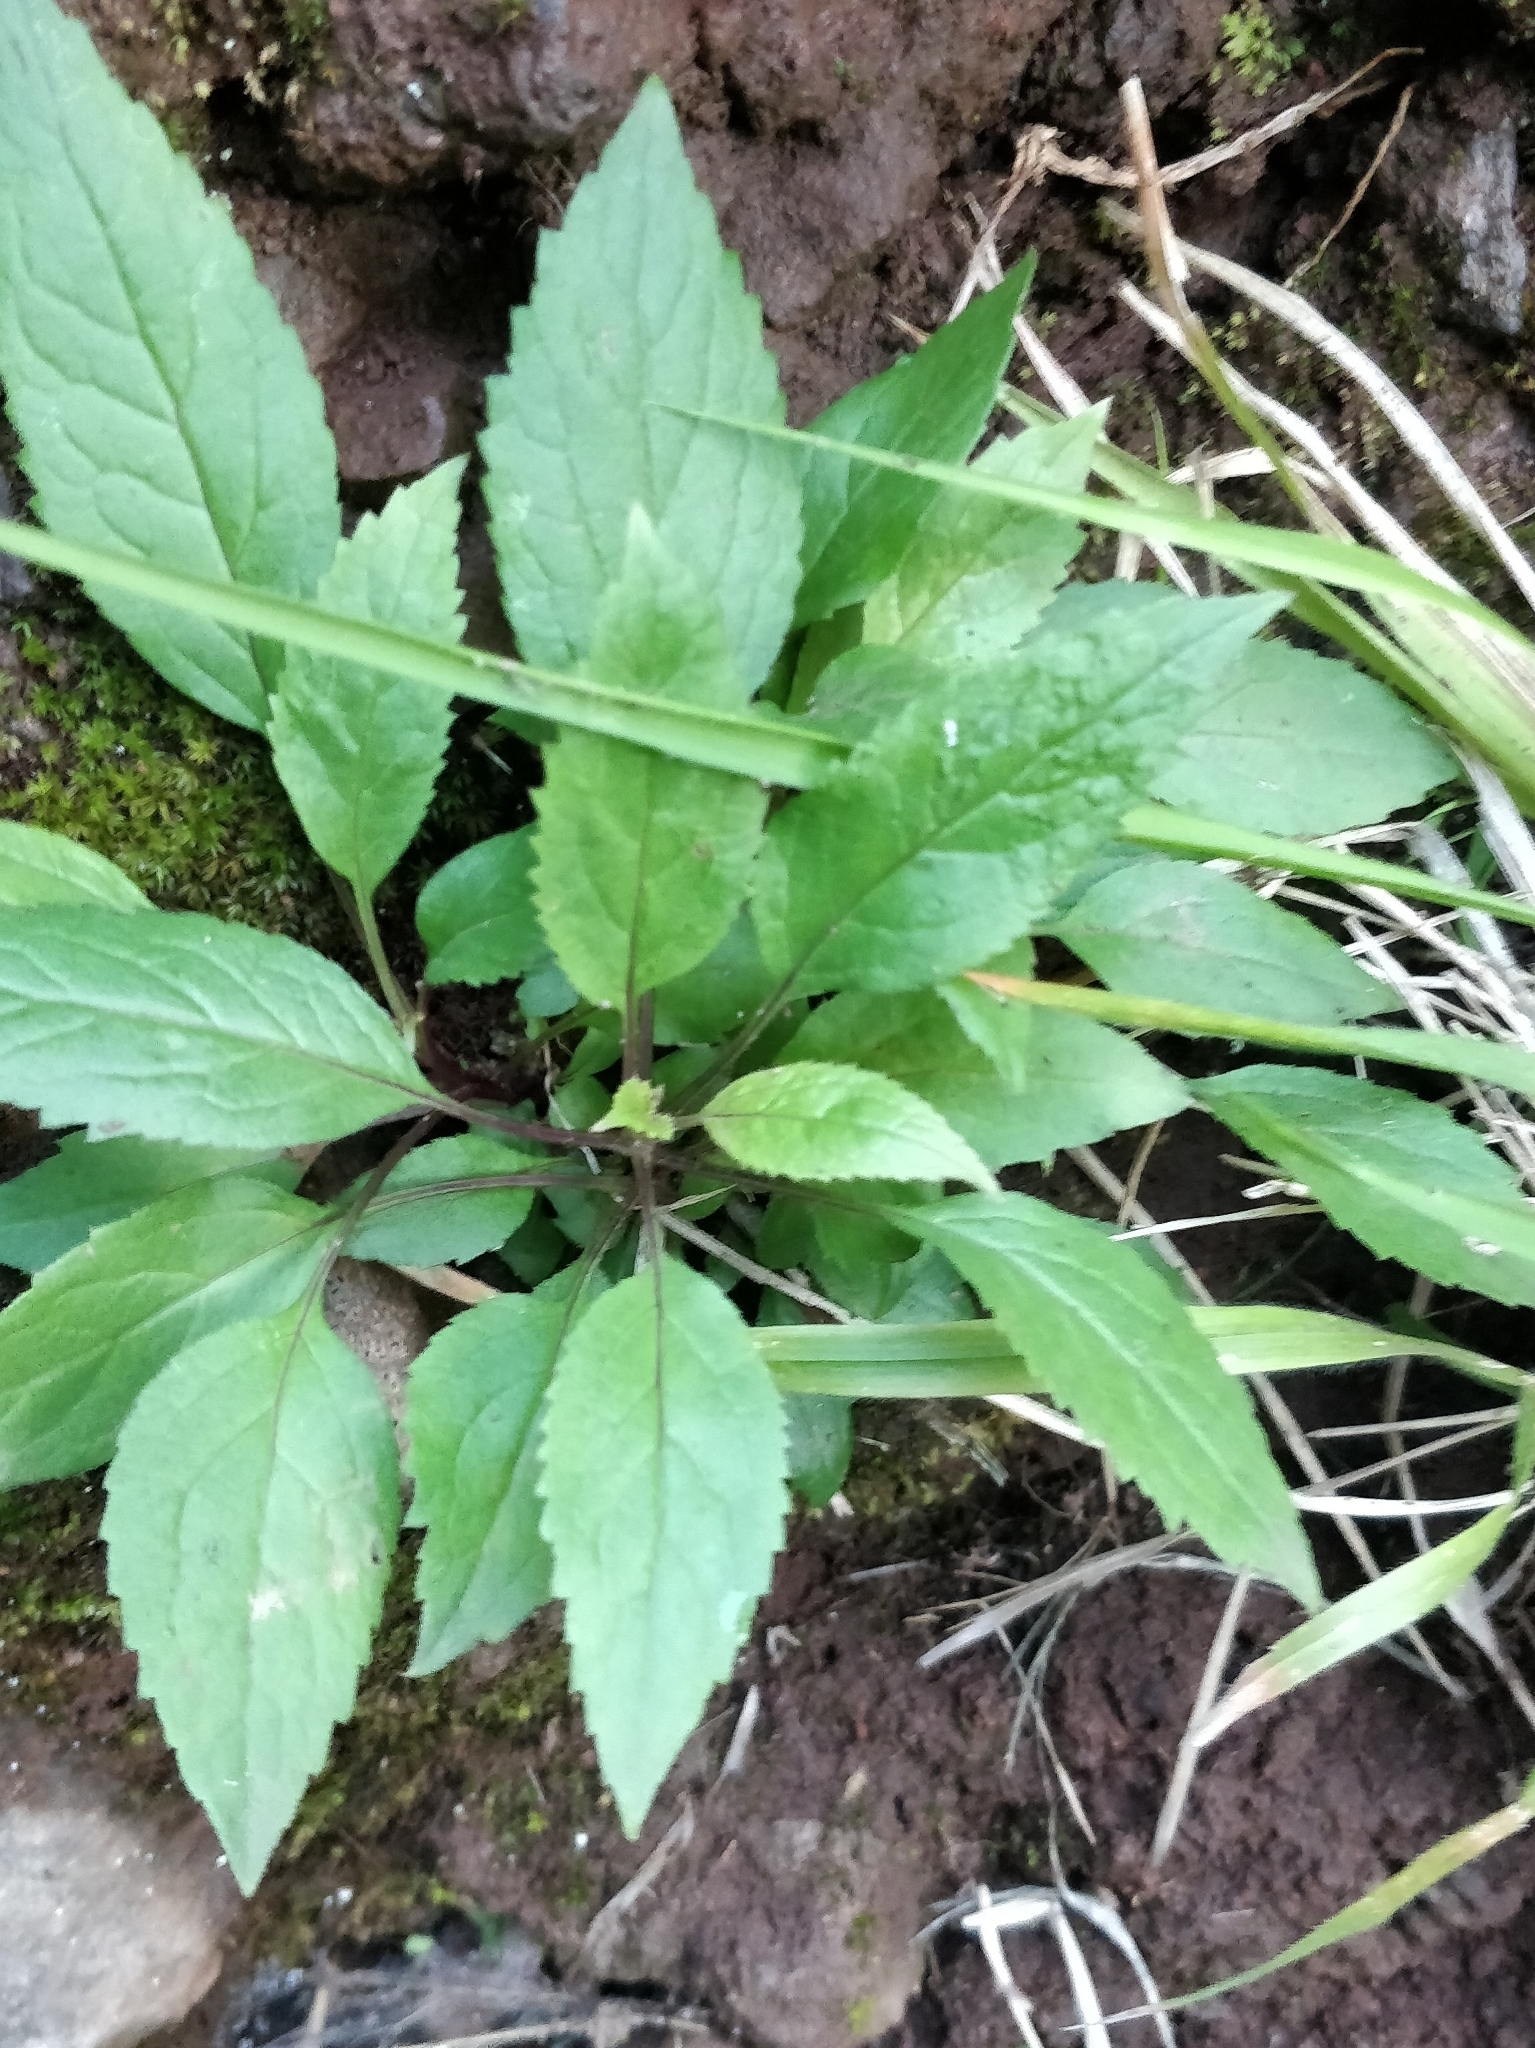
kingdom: Plantae
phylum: Tracheophyta
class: Magnoliopsida
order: Asterales
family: Campanulaceae
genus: Trachelium
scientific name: Trachelium caeruleum
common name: Throatwort
